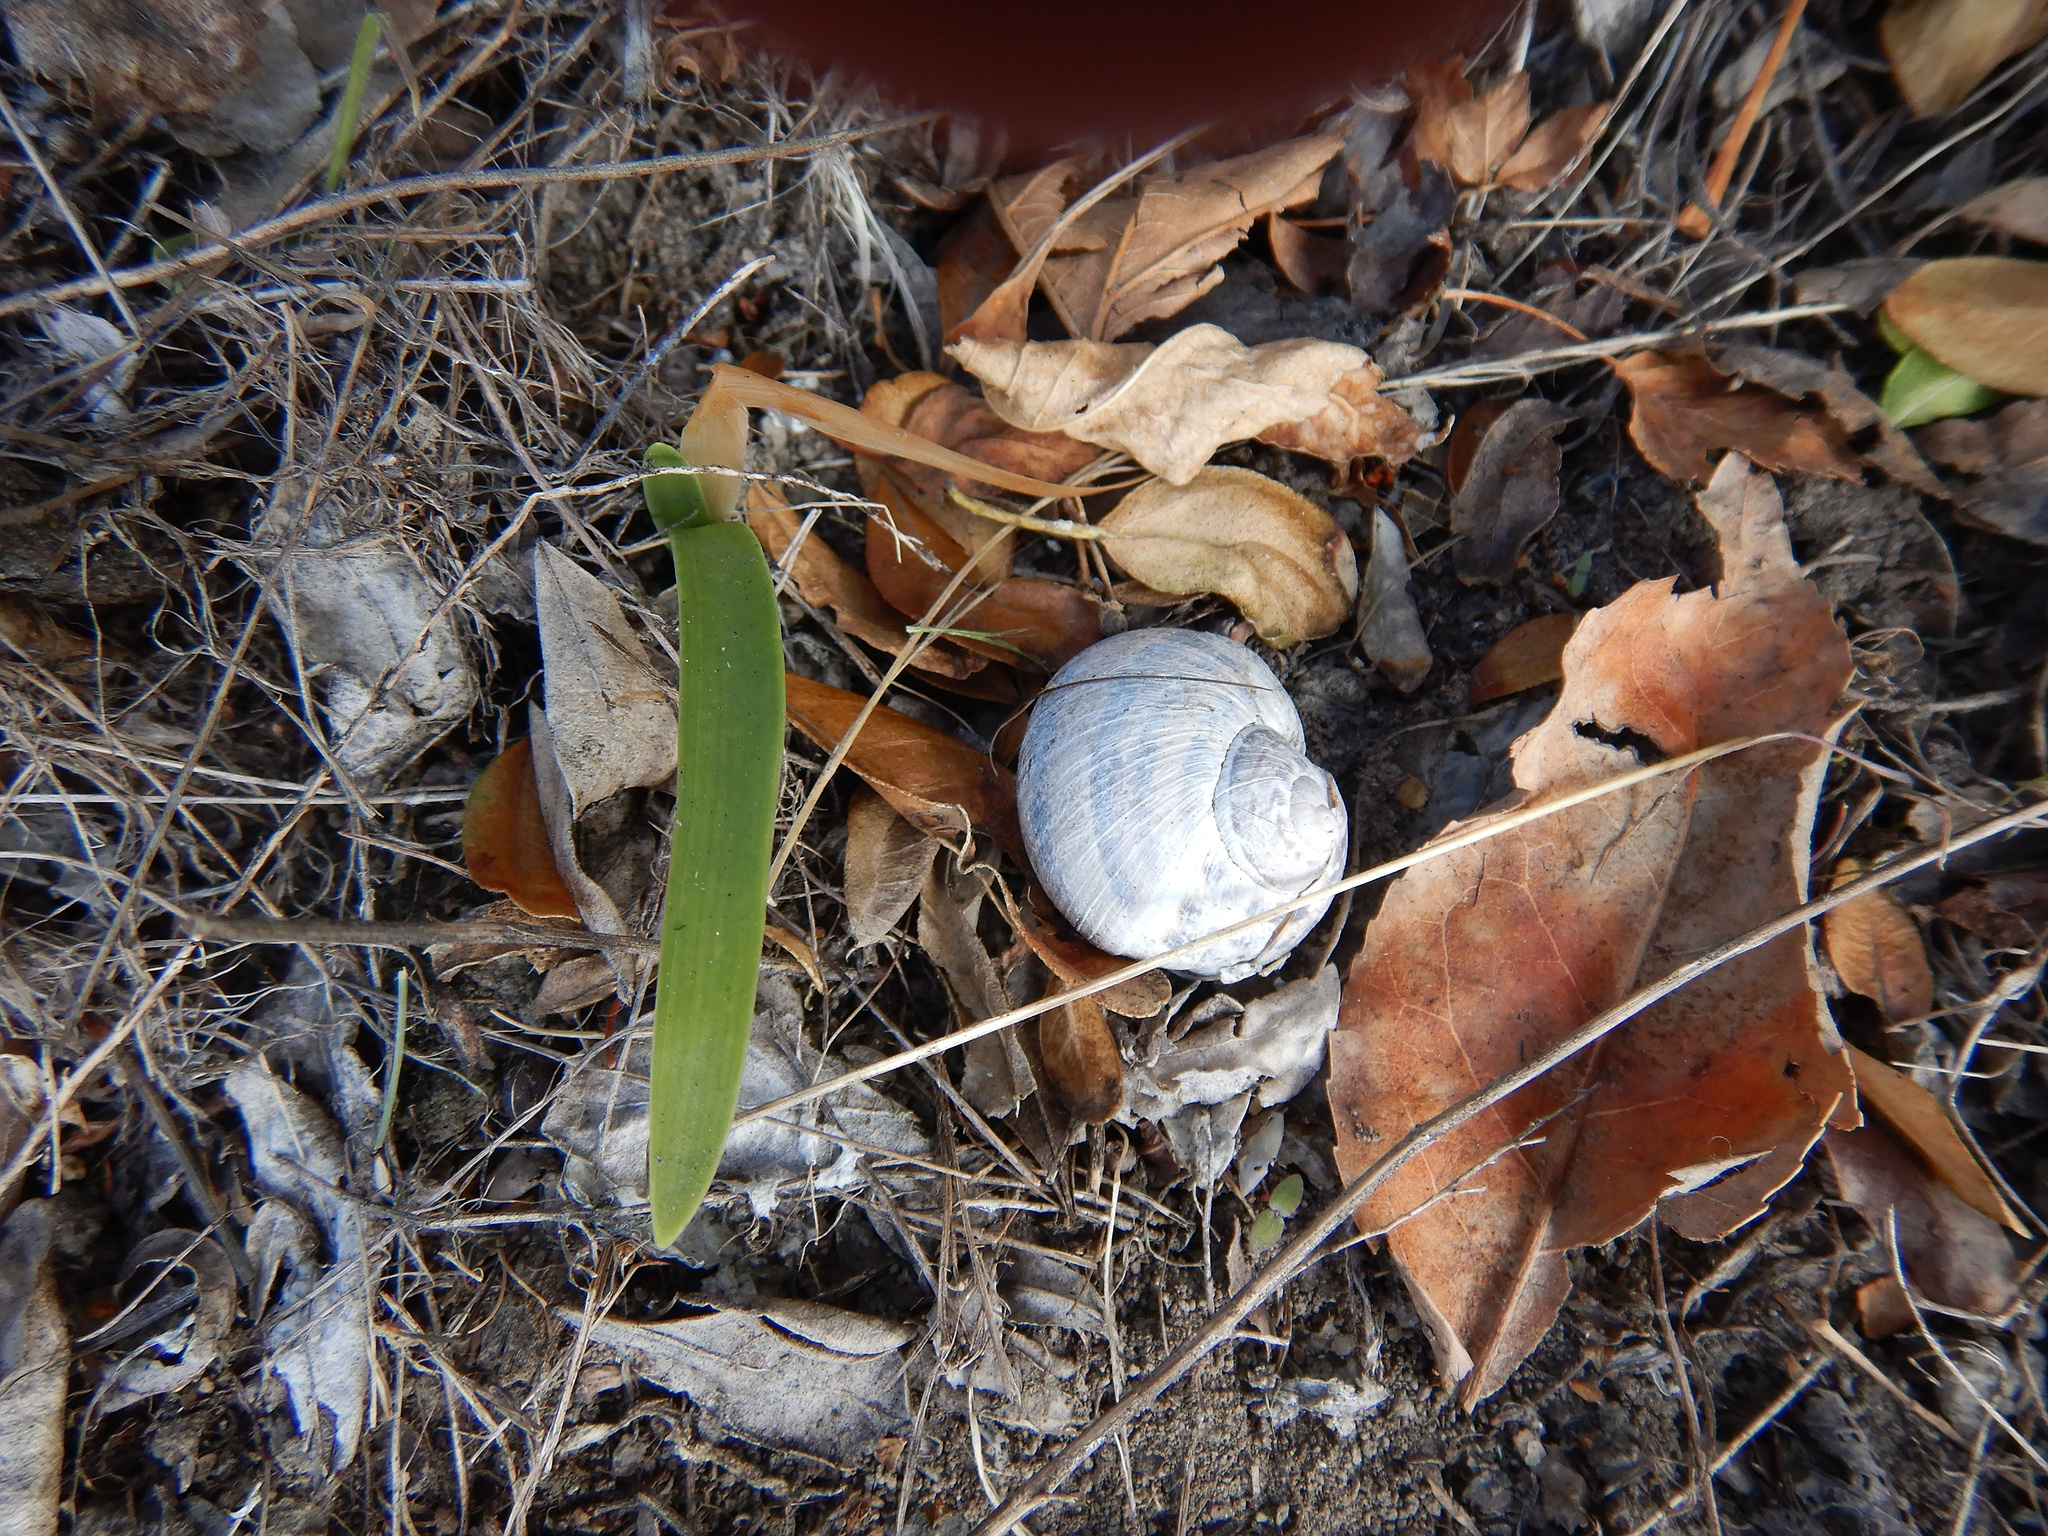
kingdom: Animalia
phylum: Mollusca
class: Gastropoda
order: Stylommatophora
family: Helicidae
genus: Cornu
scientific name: Cornu aspersum
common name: Brown garden snail
